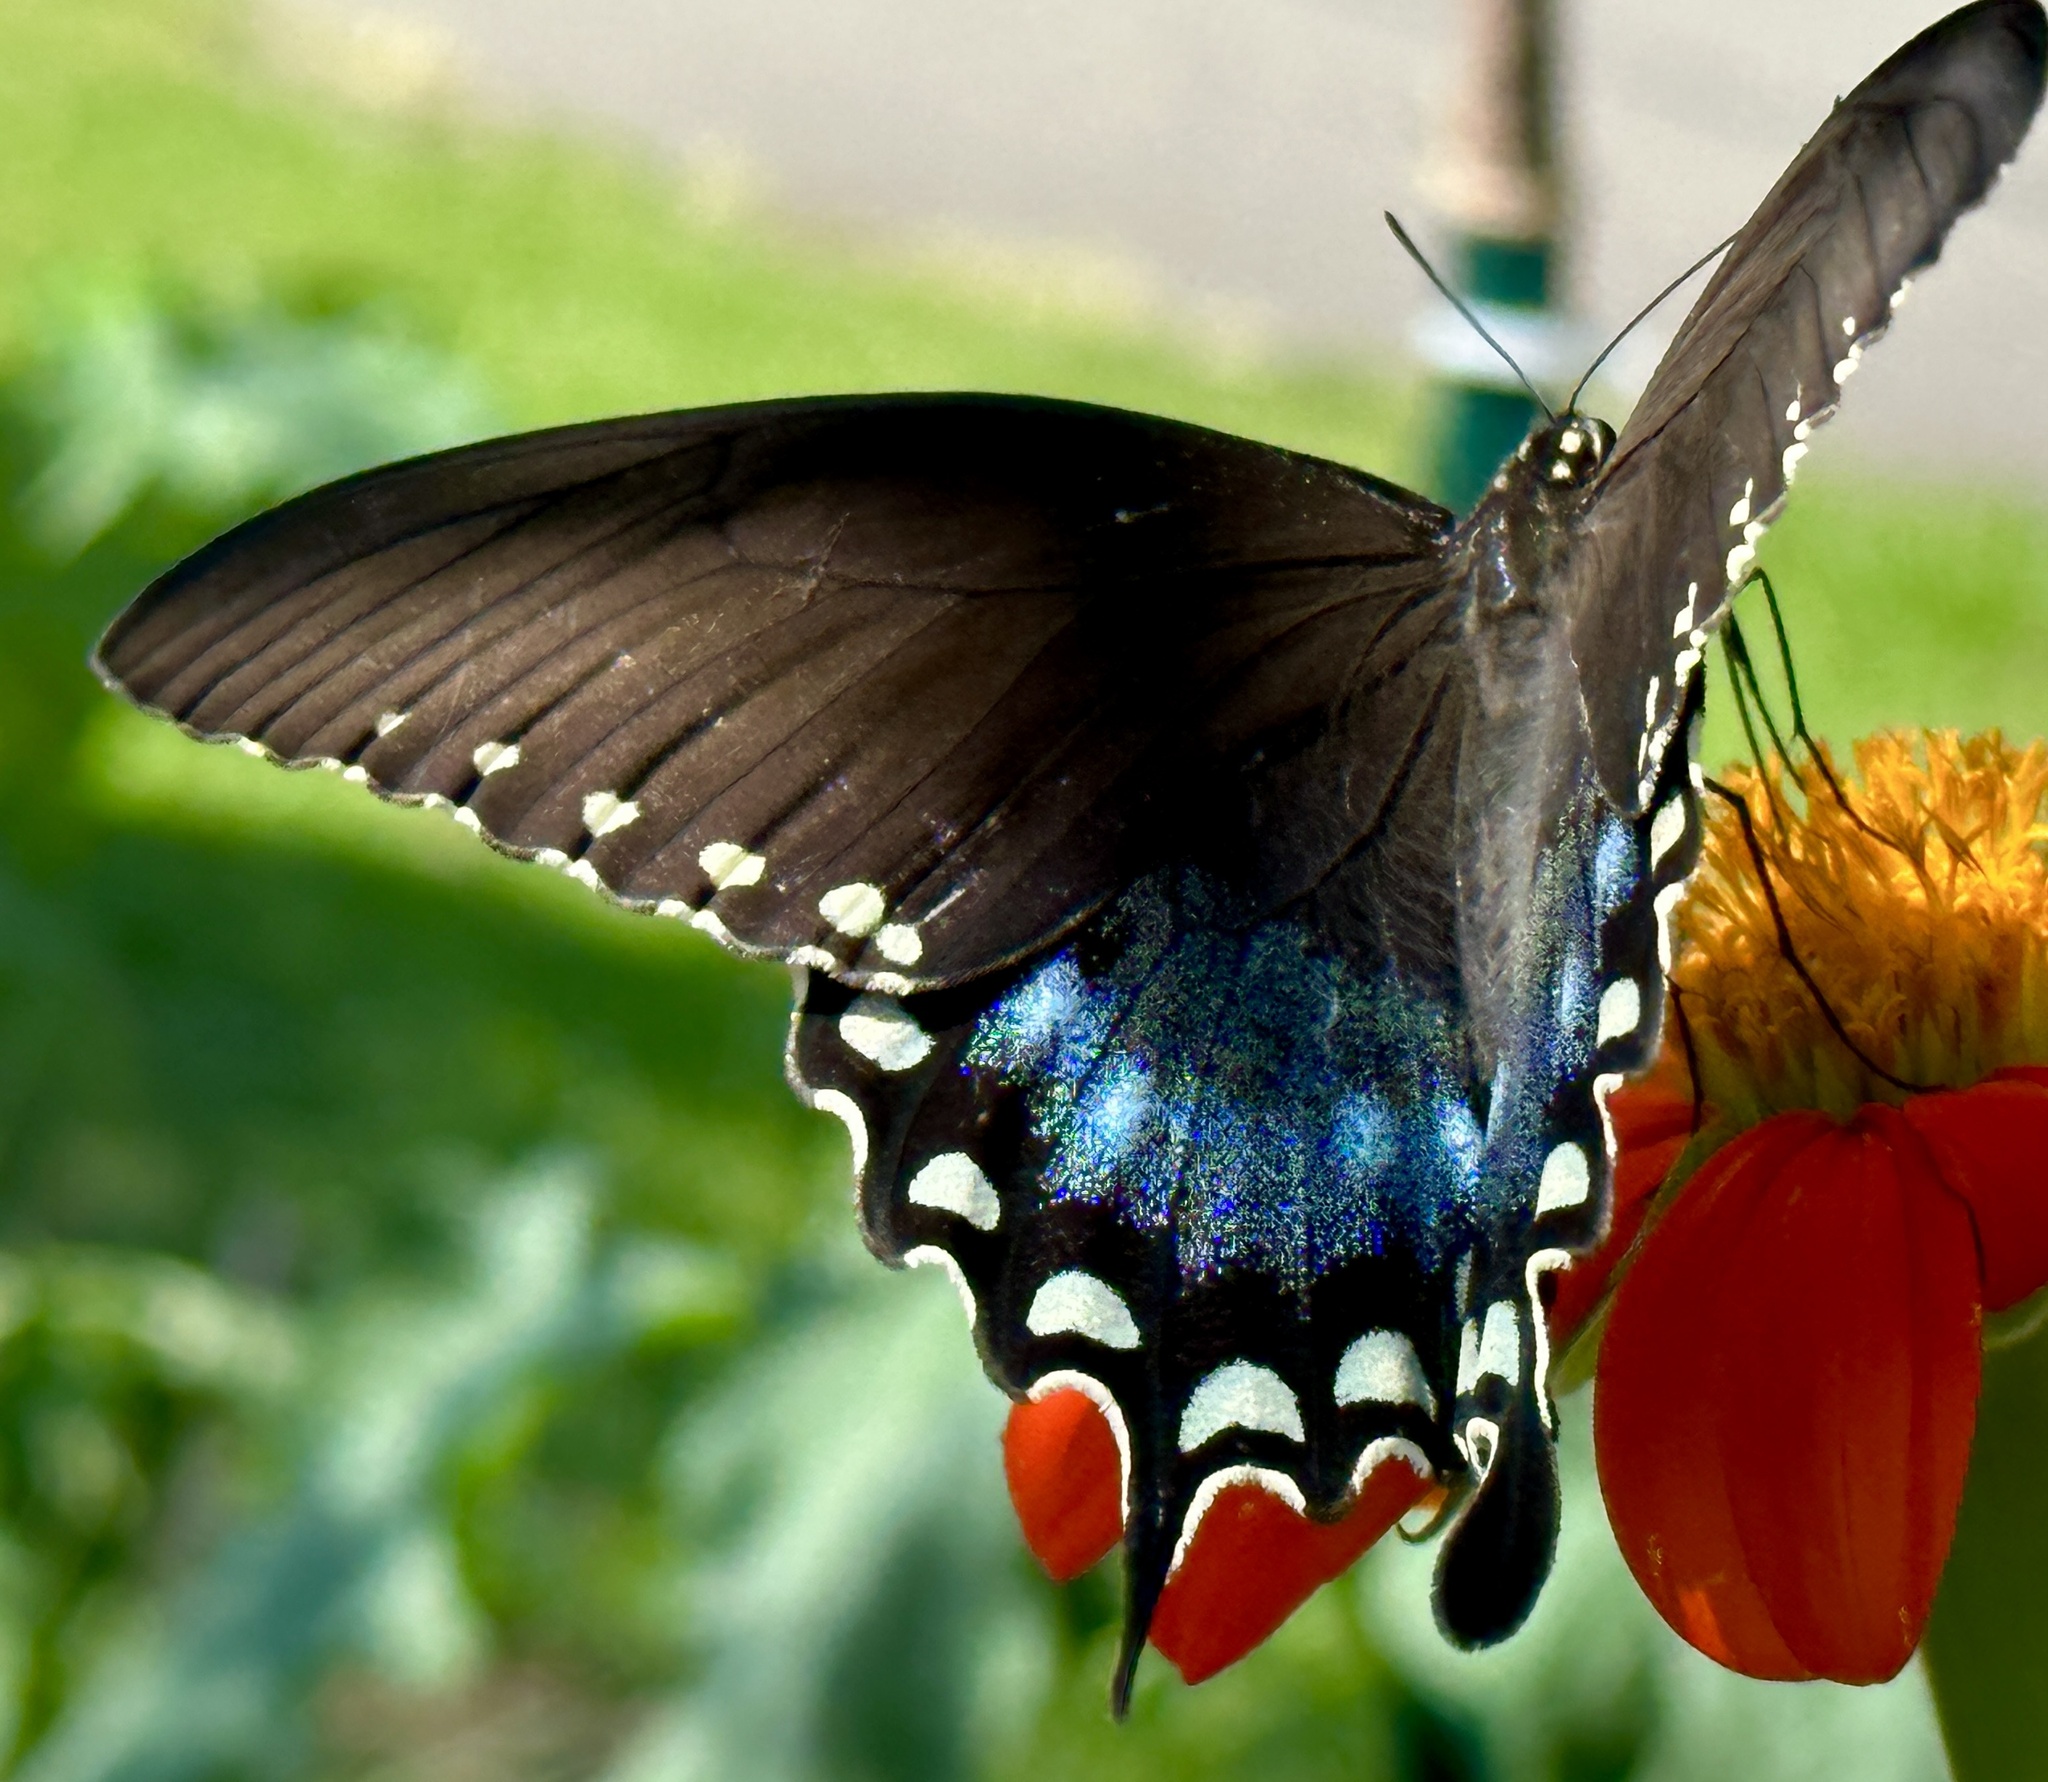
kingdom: Animalia
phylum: Arthropoda
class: Insecta
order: Lepidoptera
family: Papilionidae
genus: Papilio
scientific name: Papilio troilus
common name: Spicebush swallowtail
